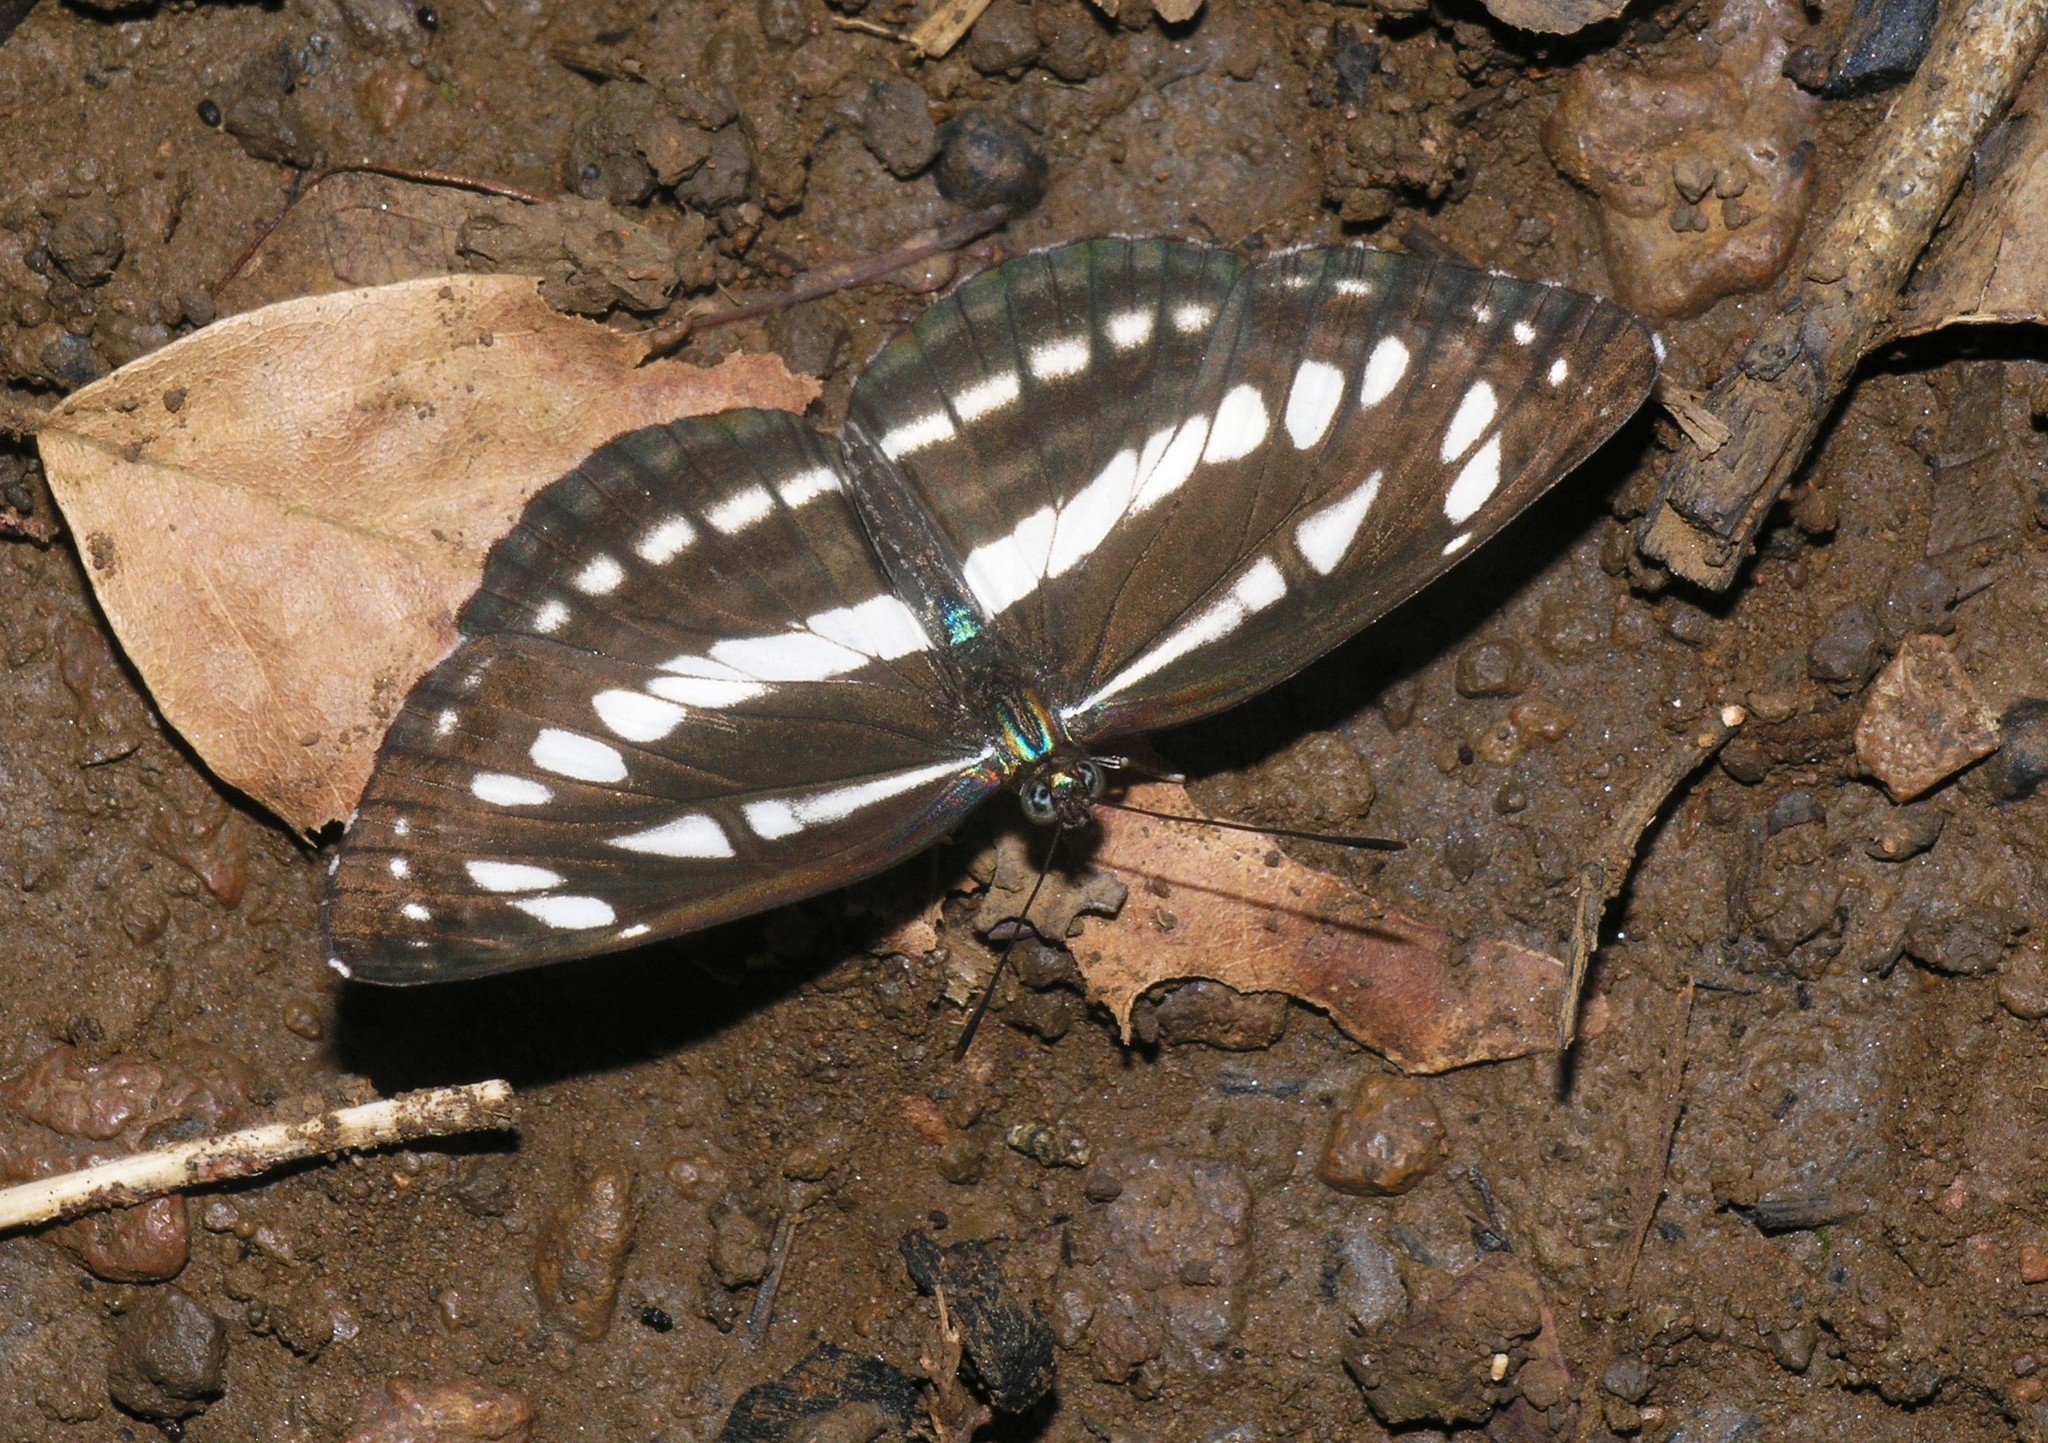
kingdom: Animalia
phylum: Arthropoda
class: Insecta
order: Lepidoptera
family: Nymphalidae
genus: Neptis
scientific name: Neptis hylas
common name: Common sailer
